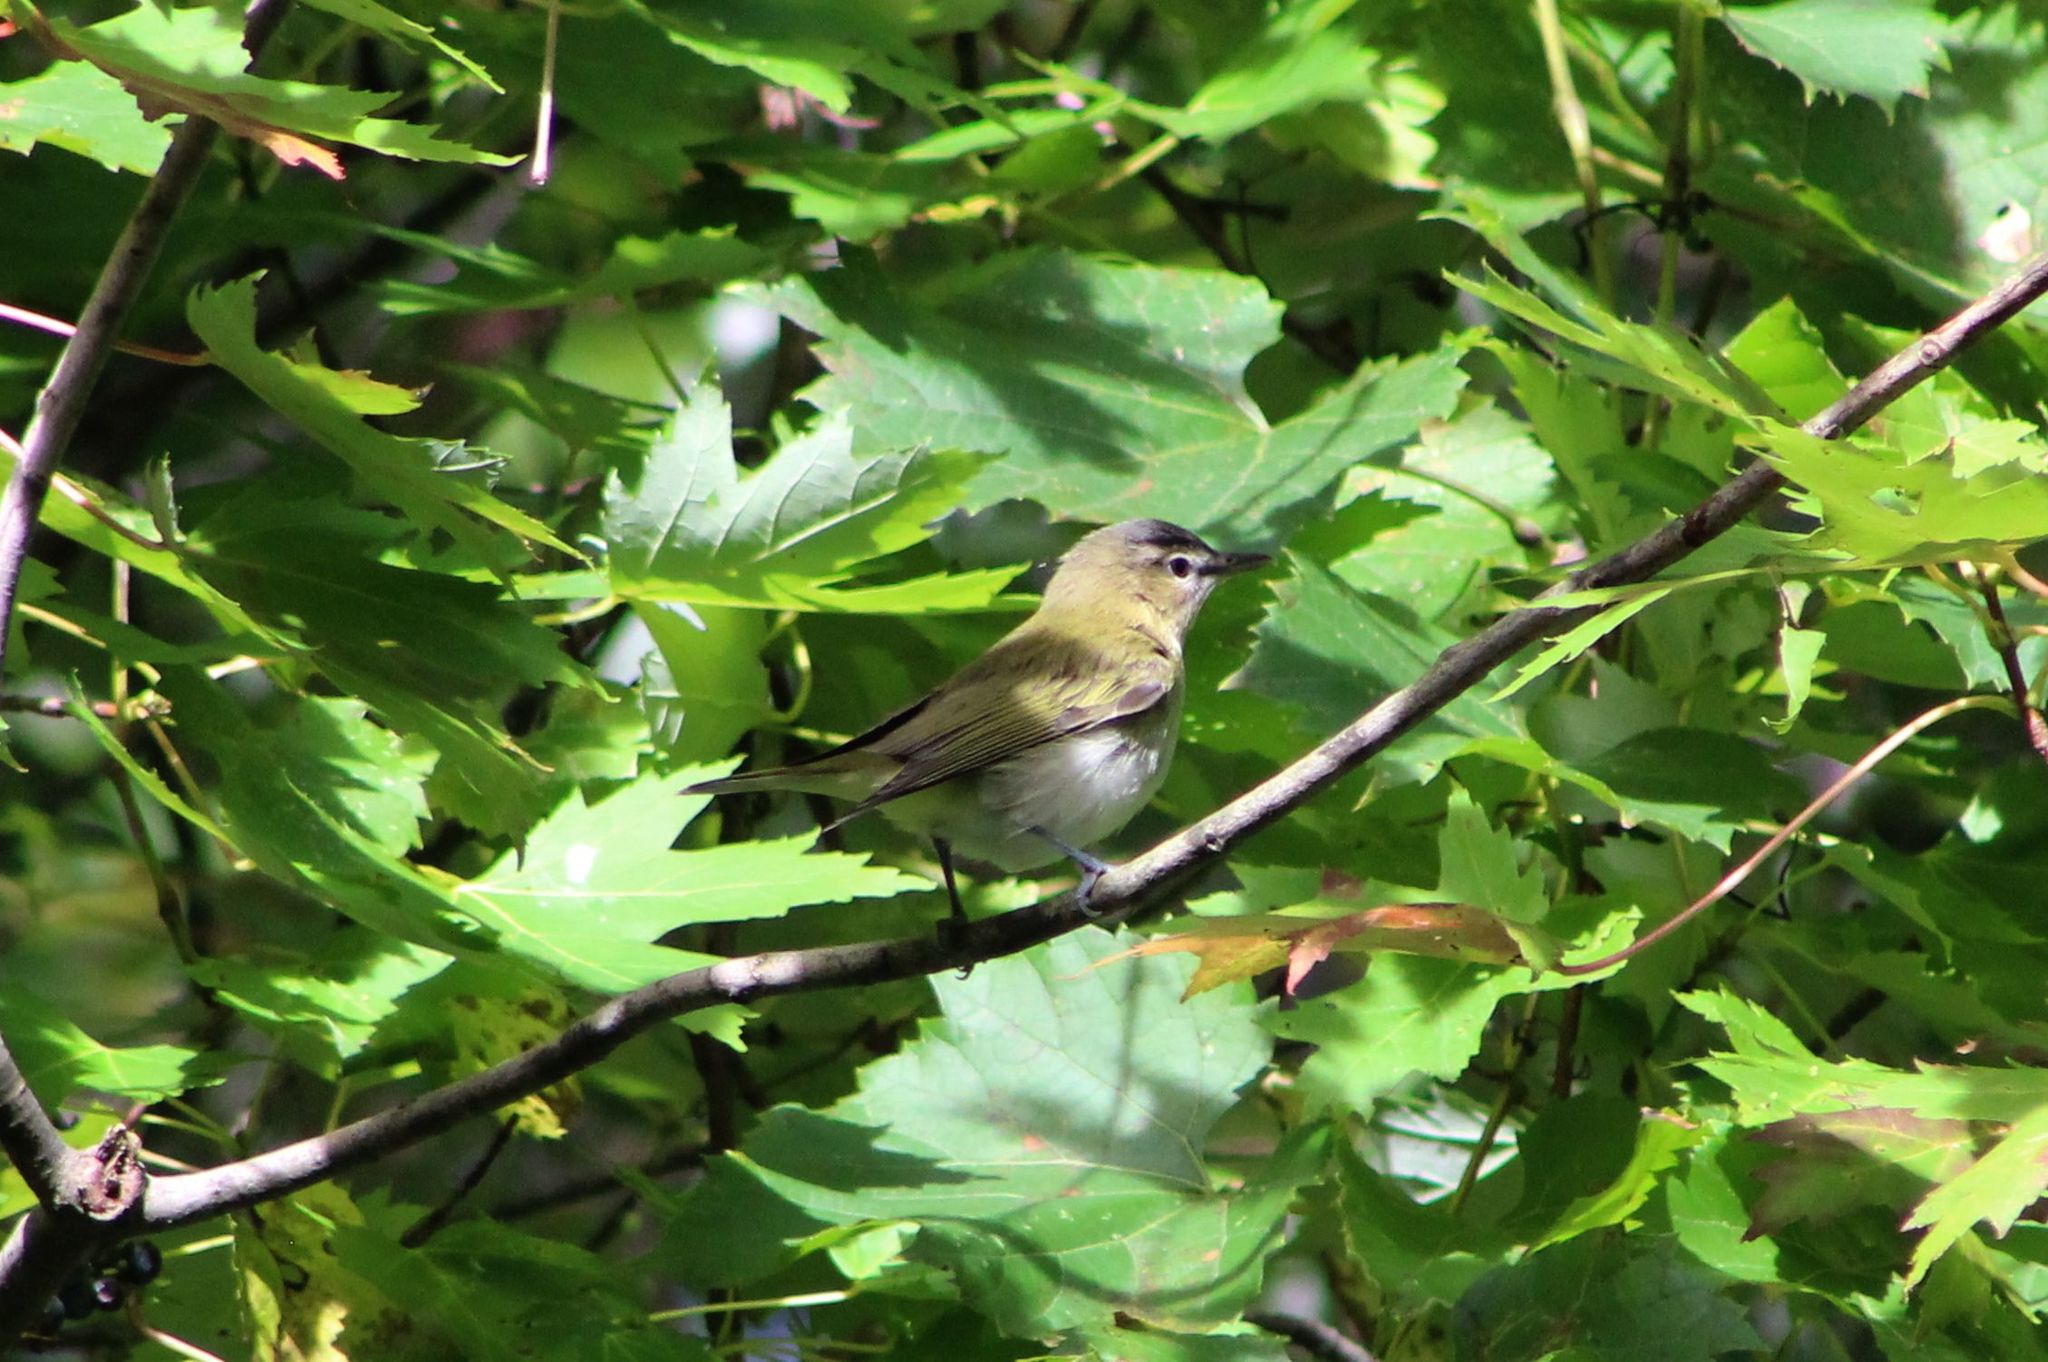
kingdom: Animalia
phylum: Chordata
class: Aves
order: Passeriformes
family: Vireonidae
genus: Vireo
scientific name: Vireo olivaceus
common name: Red-eyed vireo
